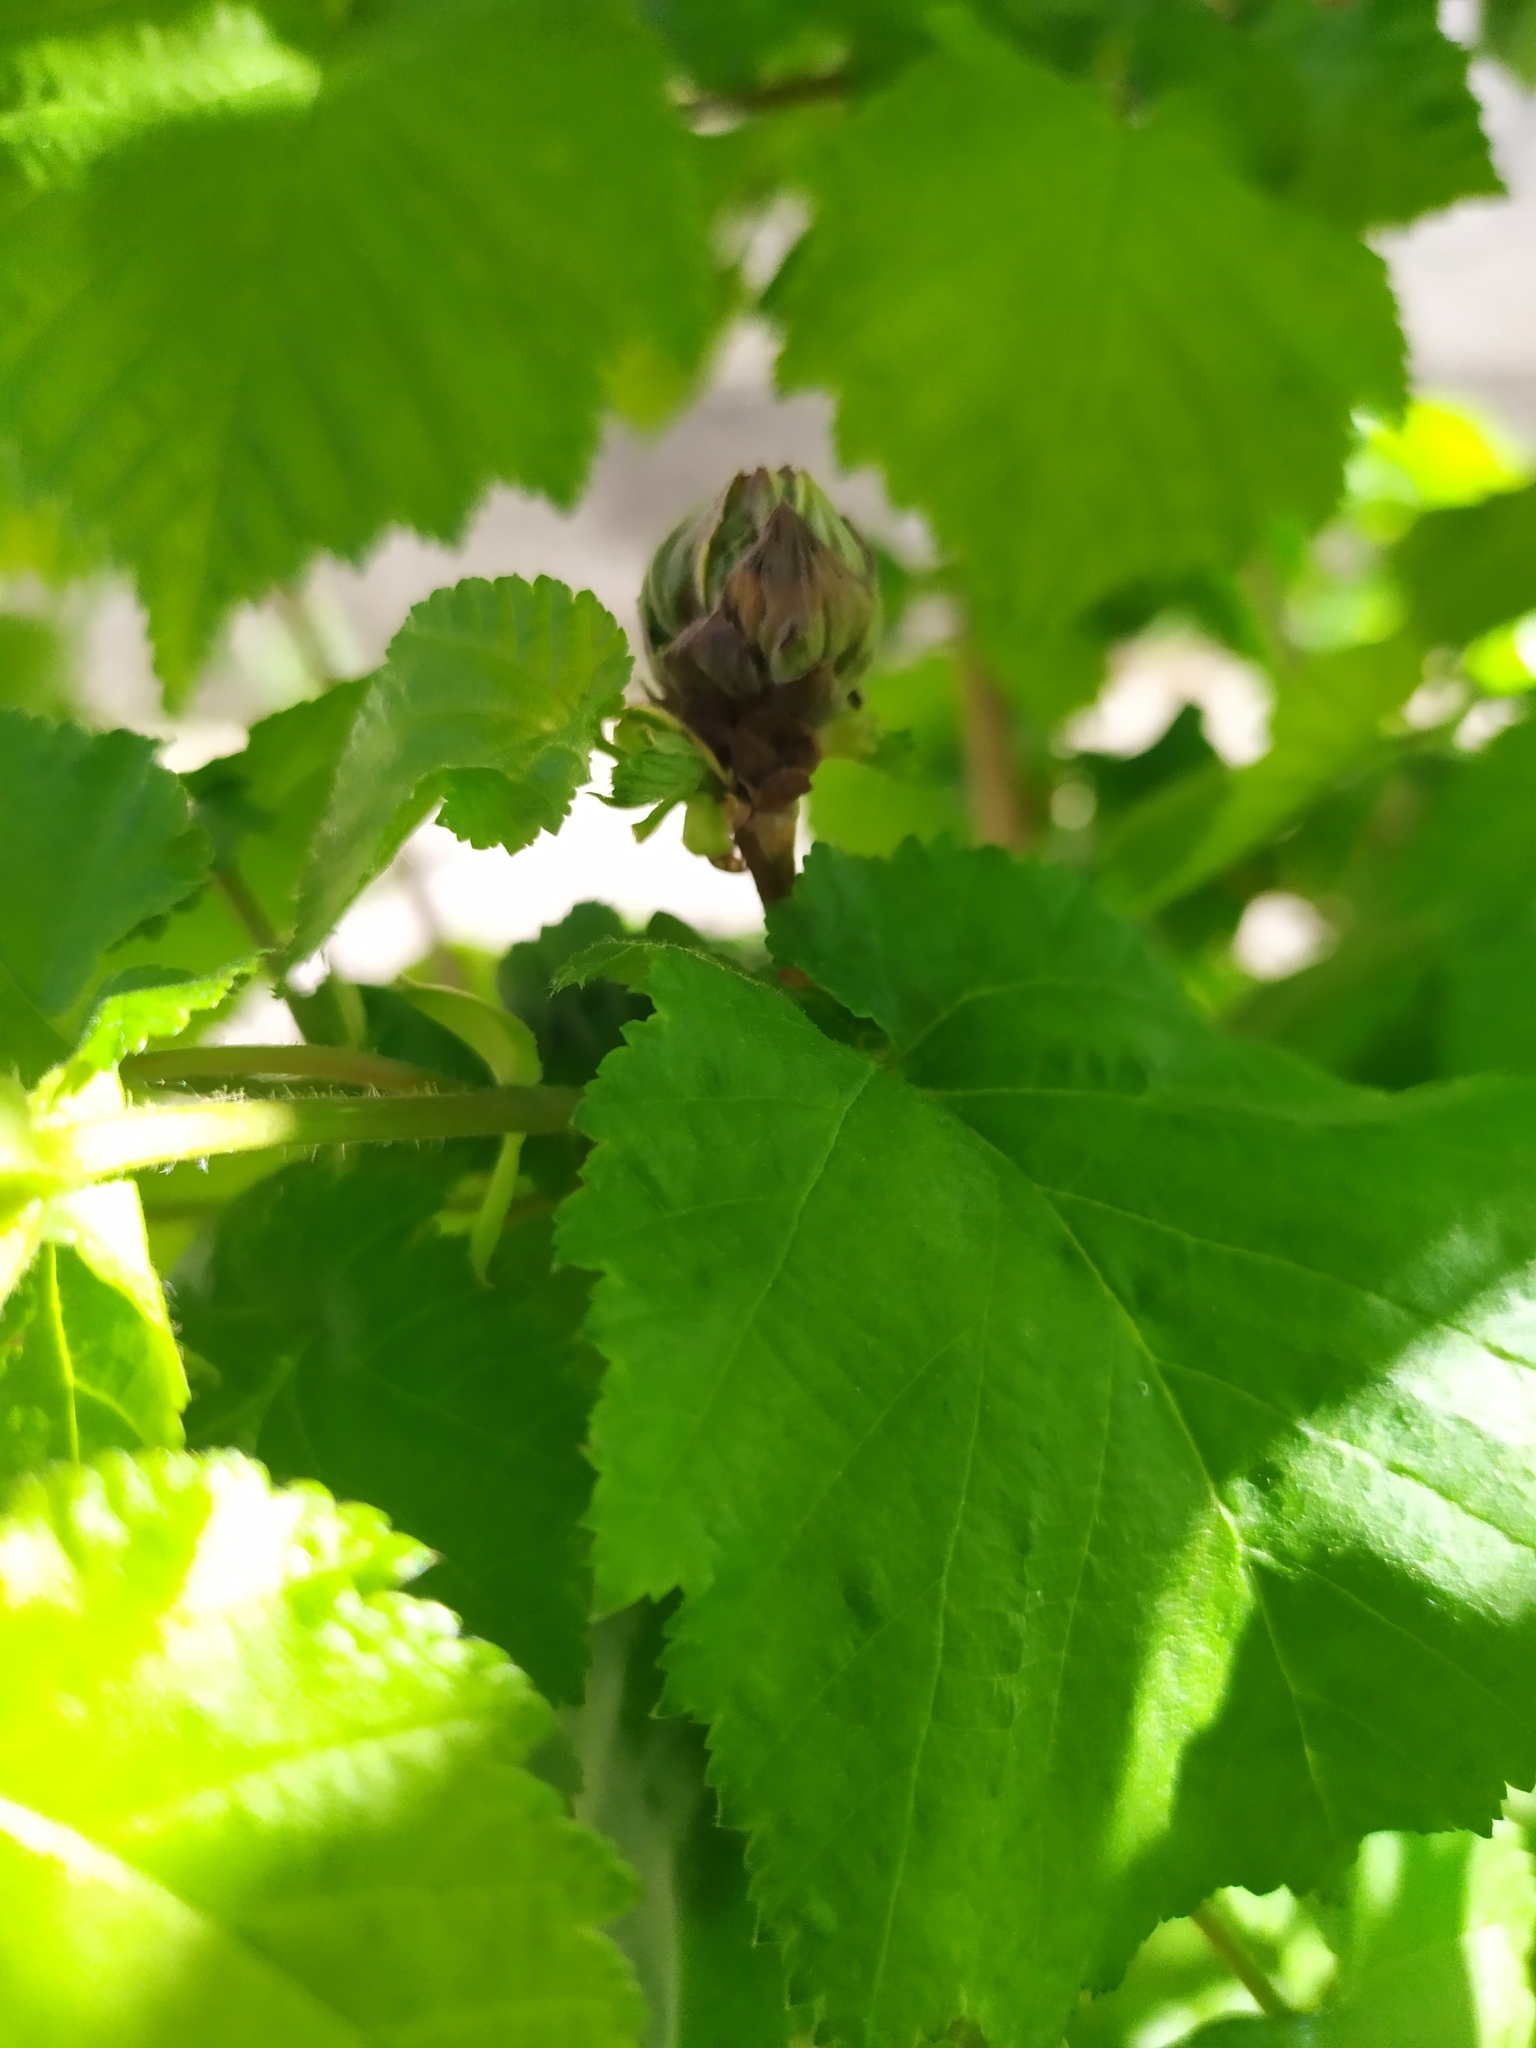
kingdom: Animalia
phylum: Arthropoda
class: Arachnida
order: Trombidiformes
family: Phytoptidae
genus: Phytoptus
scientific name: Phytoptus avellanae
